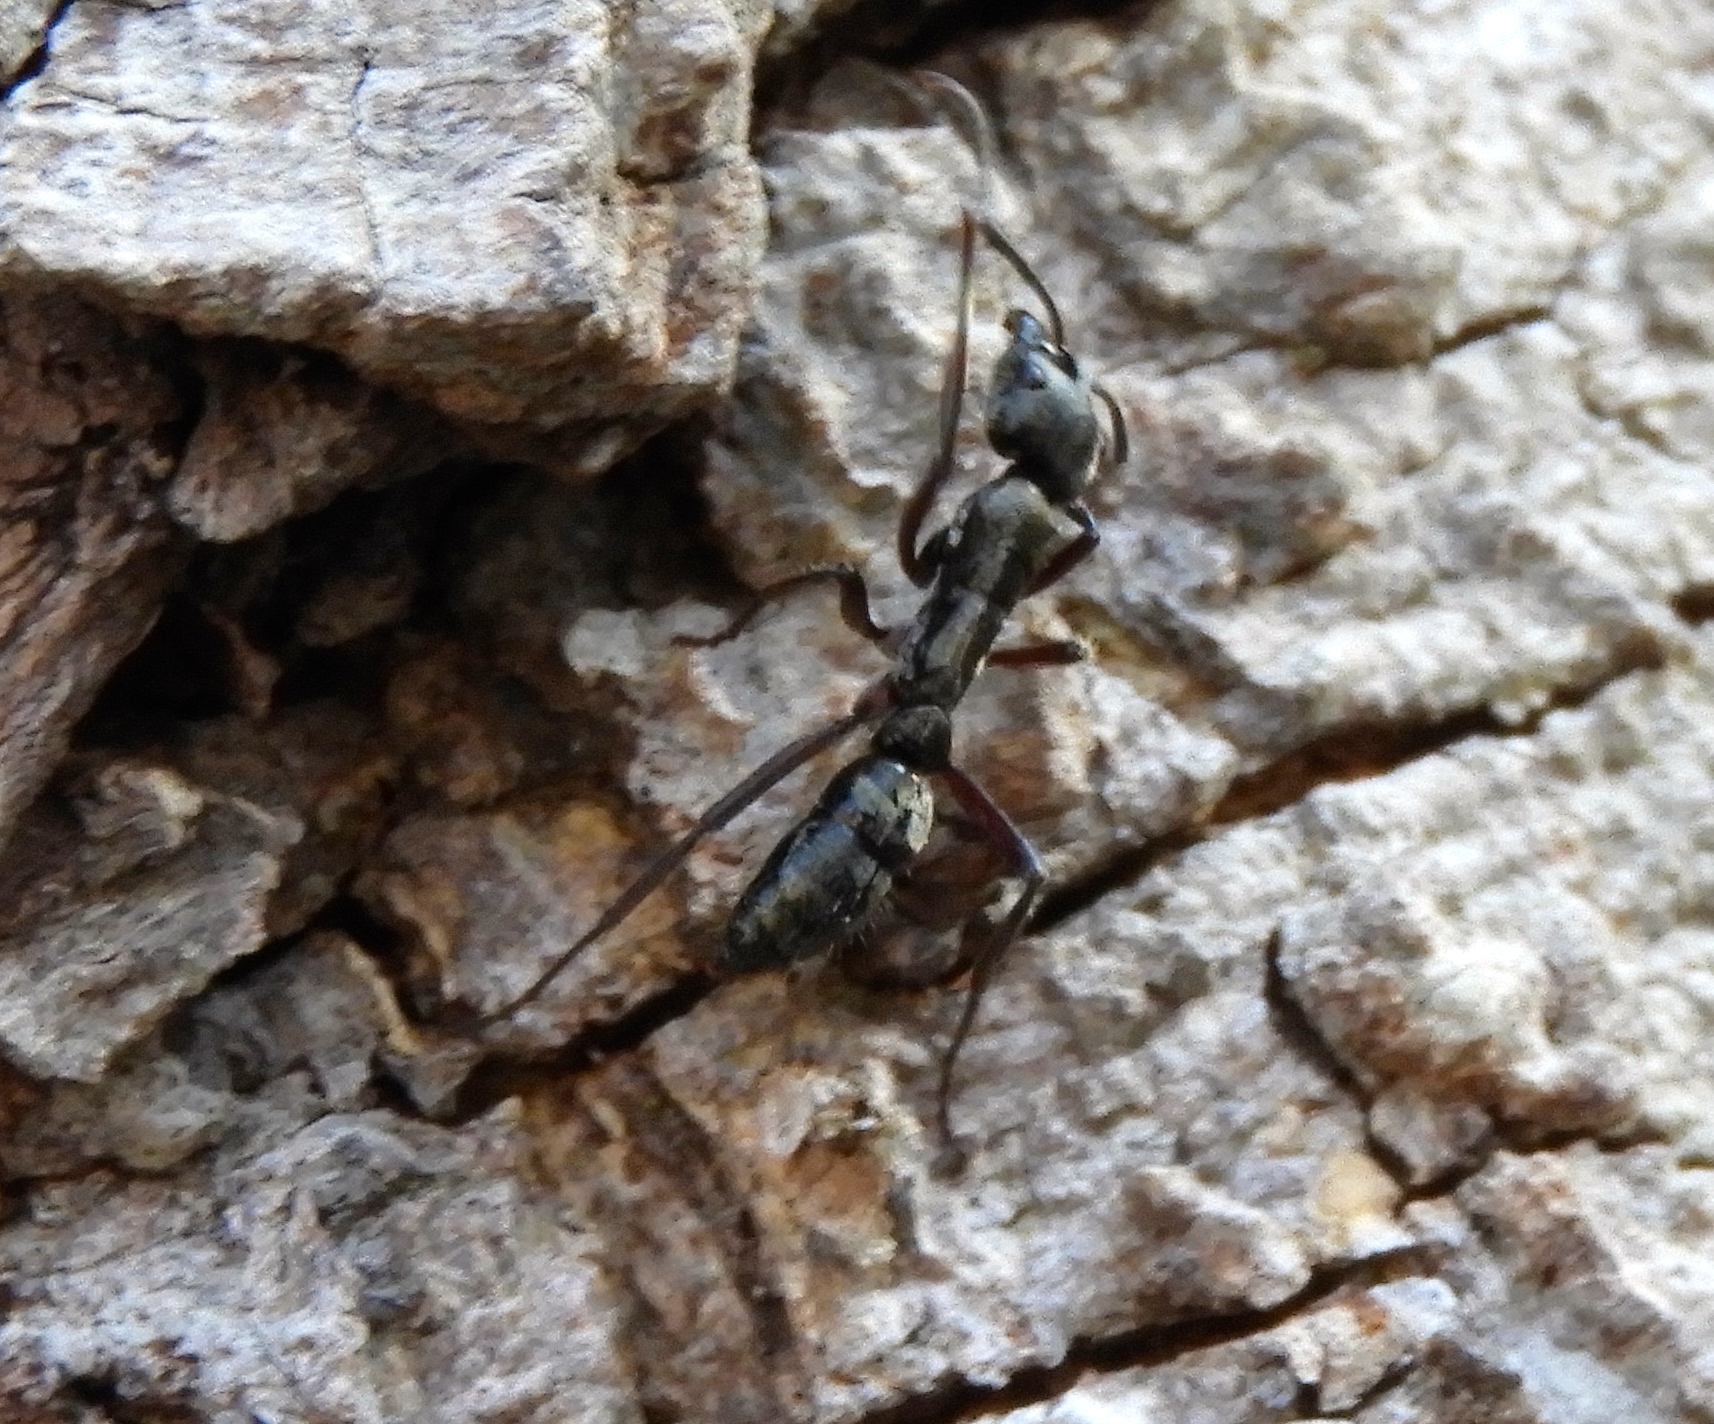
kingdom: Animalia
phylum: Arthropoda
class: Insecta
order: Hymenoptera
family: Formicidae
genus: Pachycondyla
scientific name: Pachycondyla villosa
